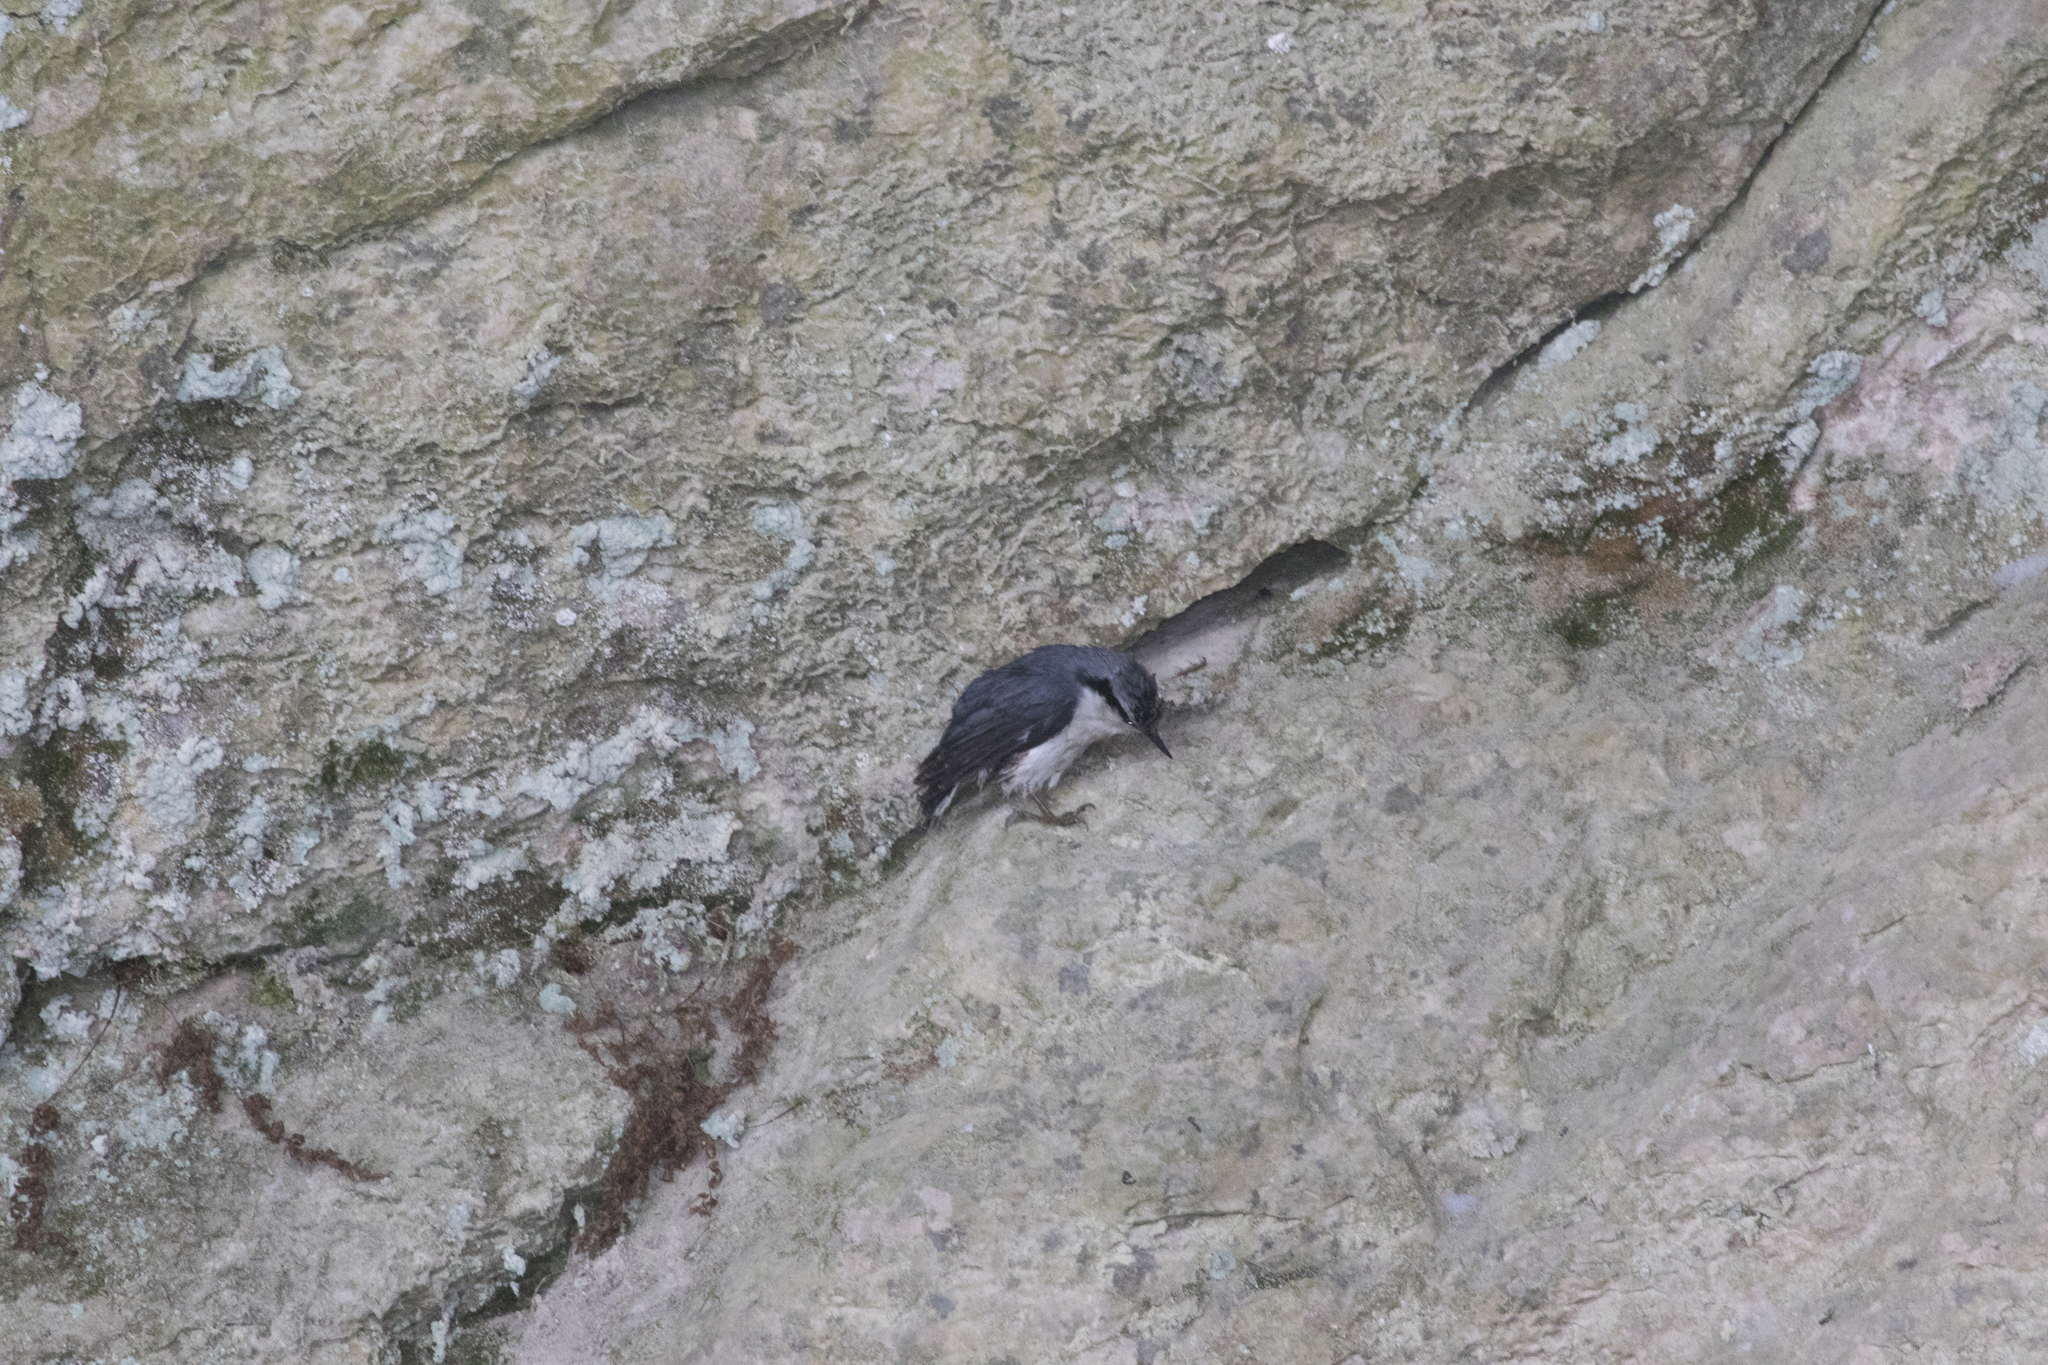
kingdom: Animalia
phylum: Chordata
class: Aves
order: Passeriformes
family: Sittidae
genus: Sitta
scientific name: Sitta europaea
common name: Eurasian nuthatch
